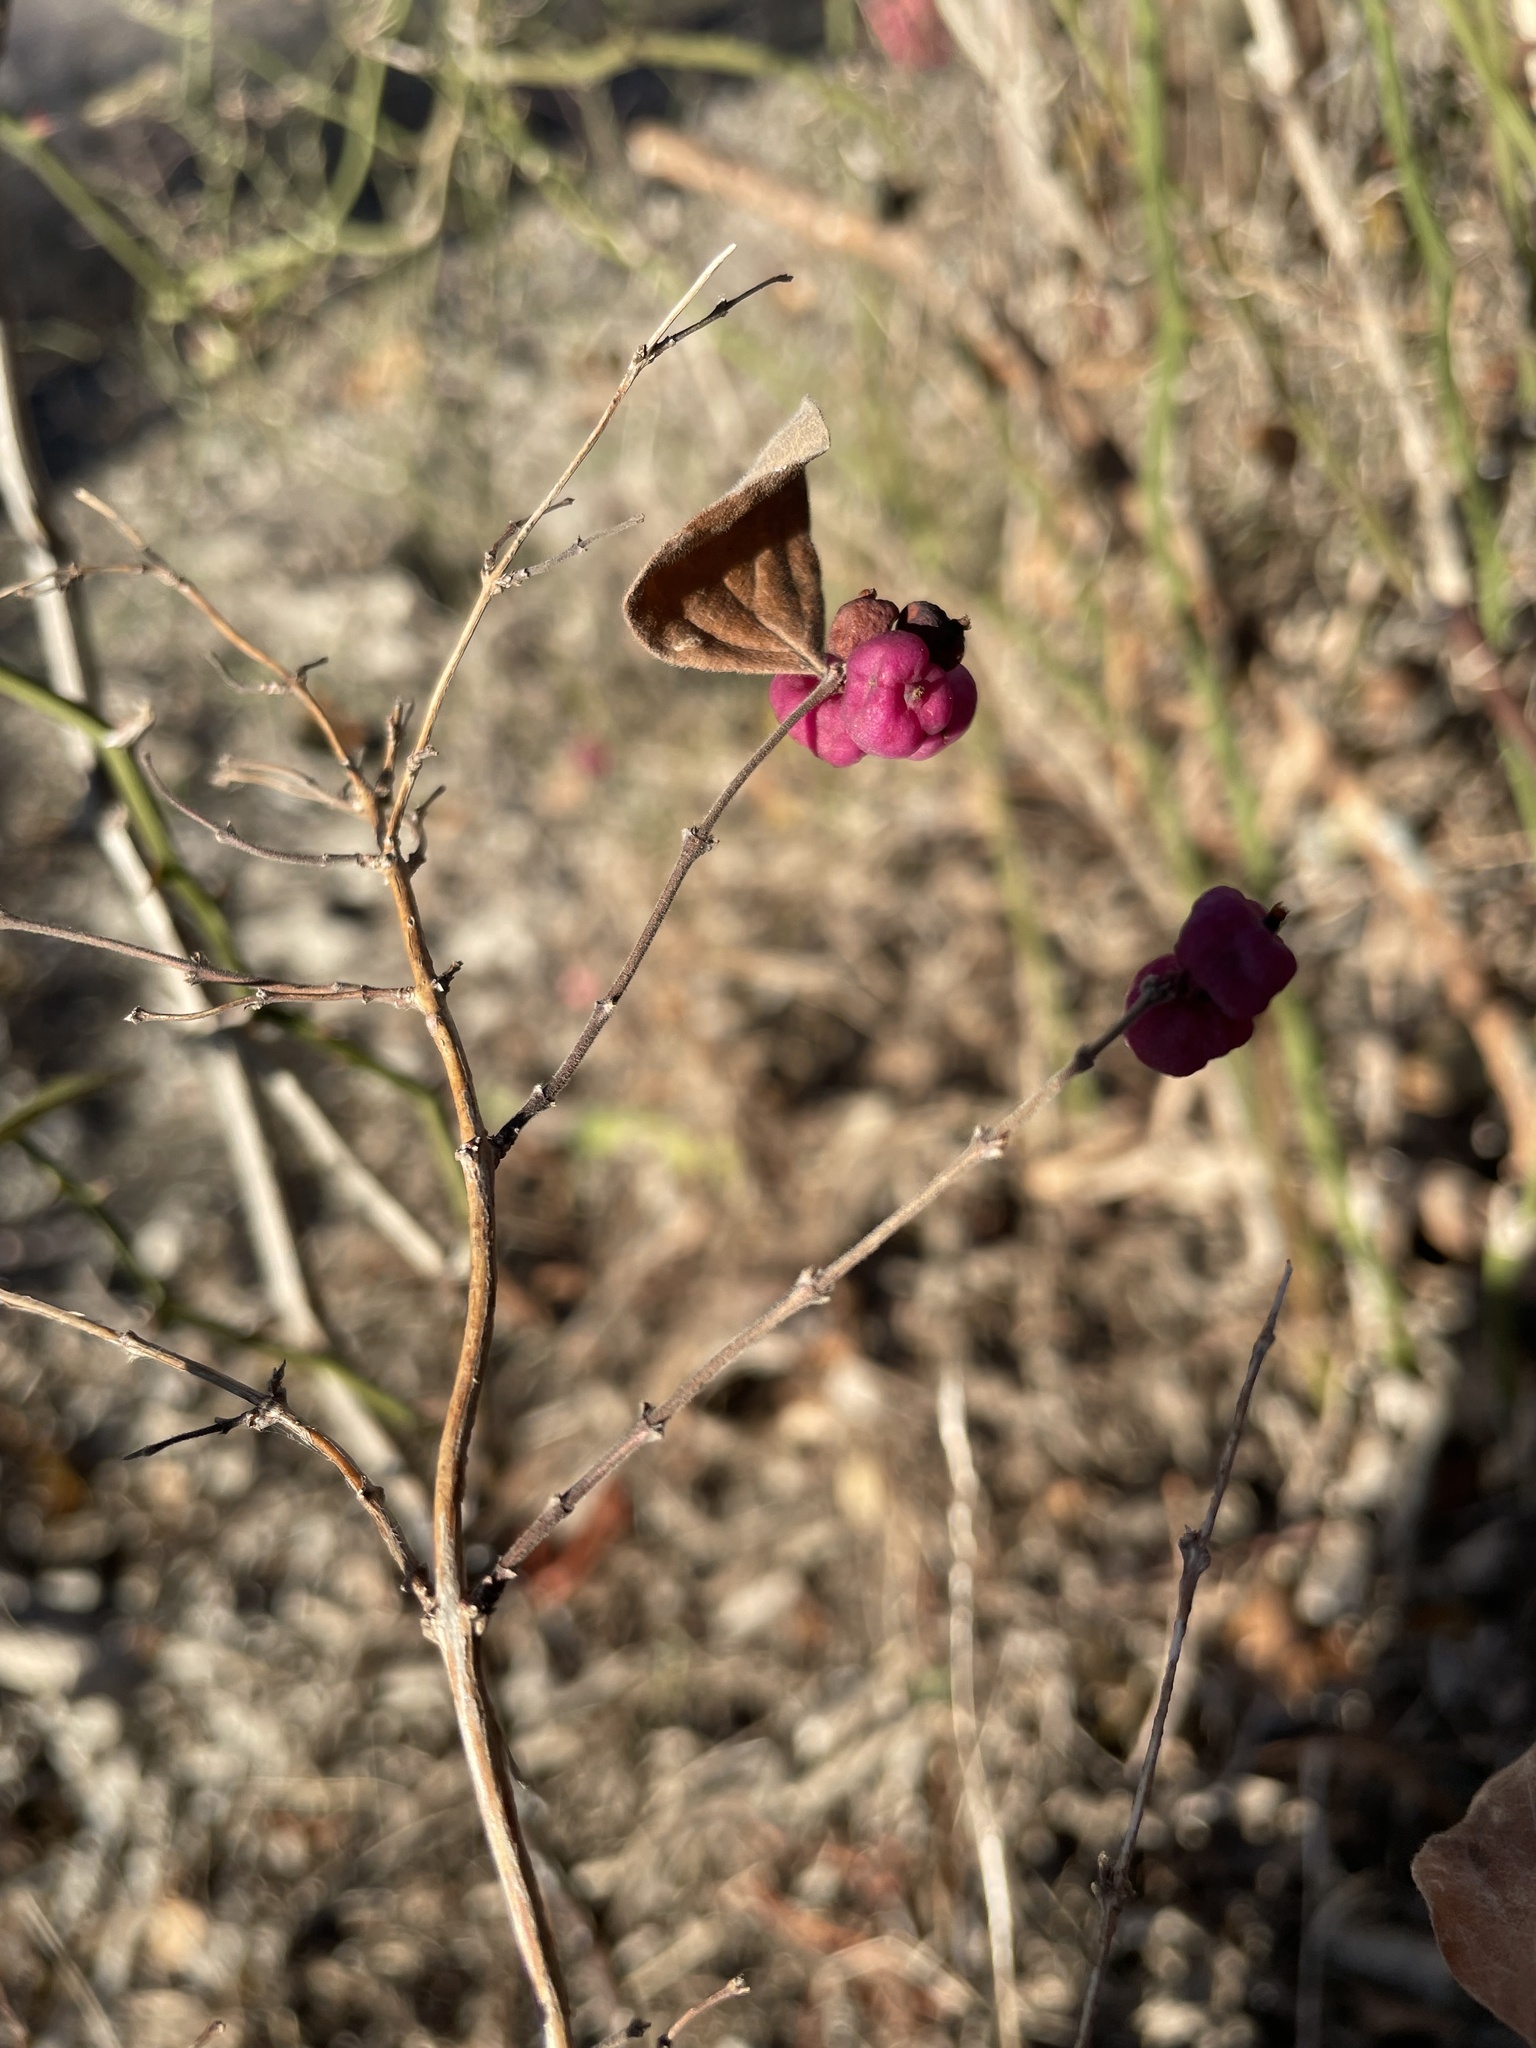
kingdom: Plantae
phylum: Tracheophyta
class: Magnoliopsida
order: Dipsacales
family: Caprifoliaceae
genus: Symphoricarpos
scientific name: Symphoricarpos orbiculatus
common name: Coralberry
